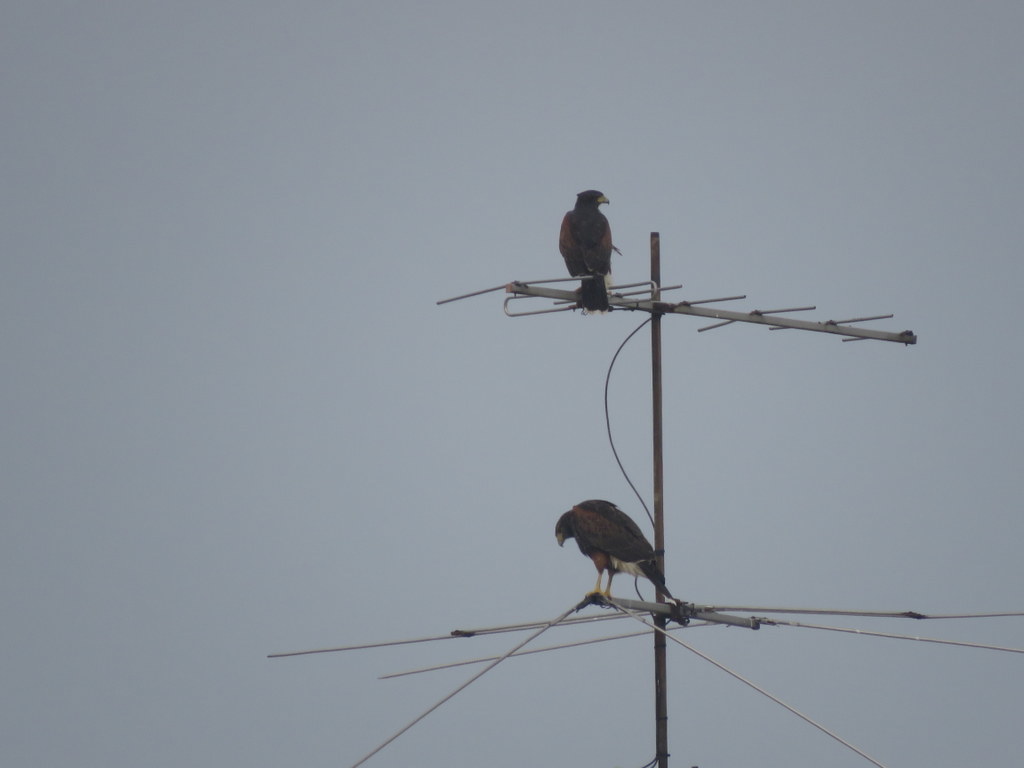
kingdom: Animalia
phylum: Chordata
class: Aves
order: Accipitriformes
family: Accipitridae
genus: Parabuteo
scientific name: Parabuteo unicinctus
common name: Harris's hawk
